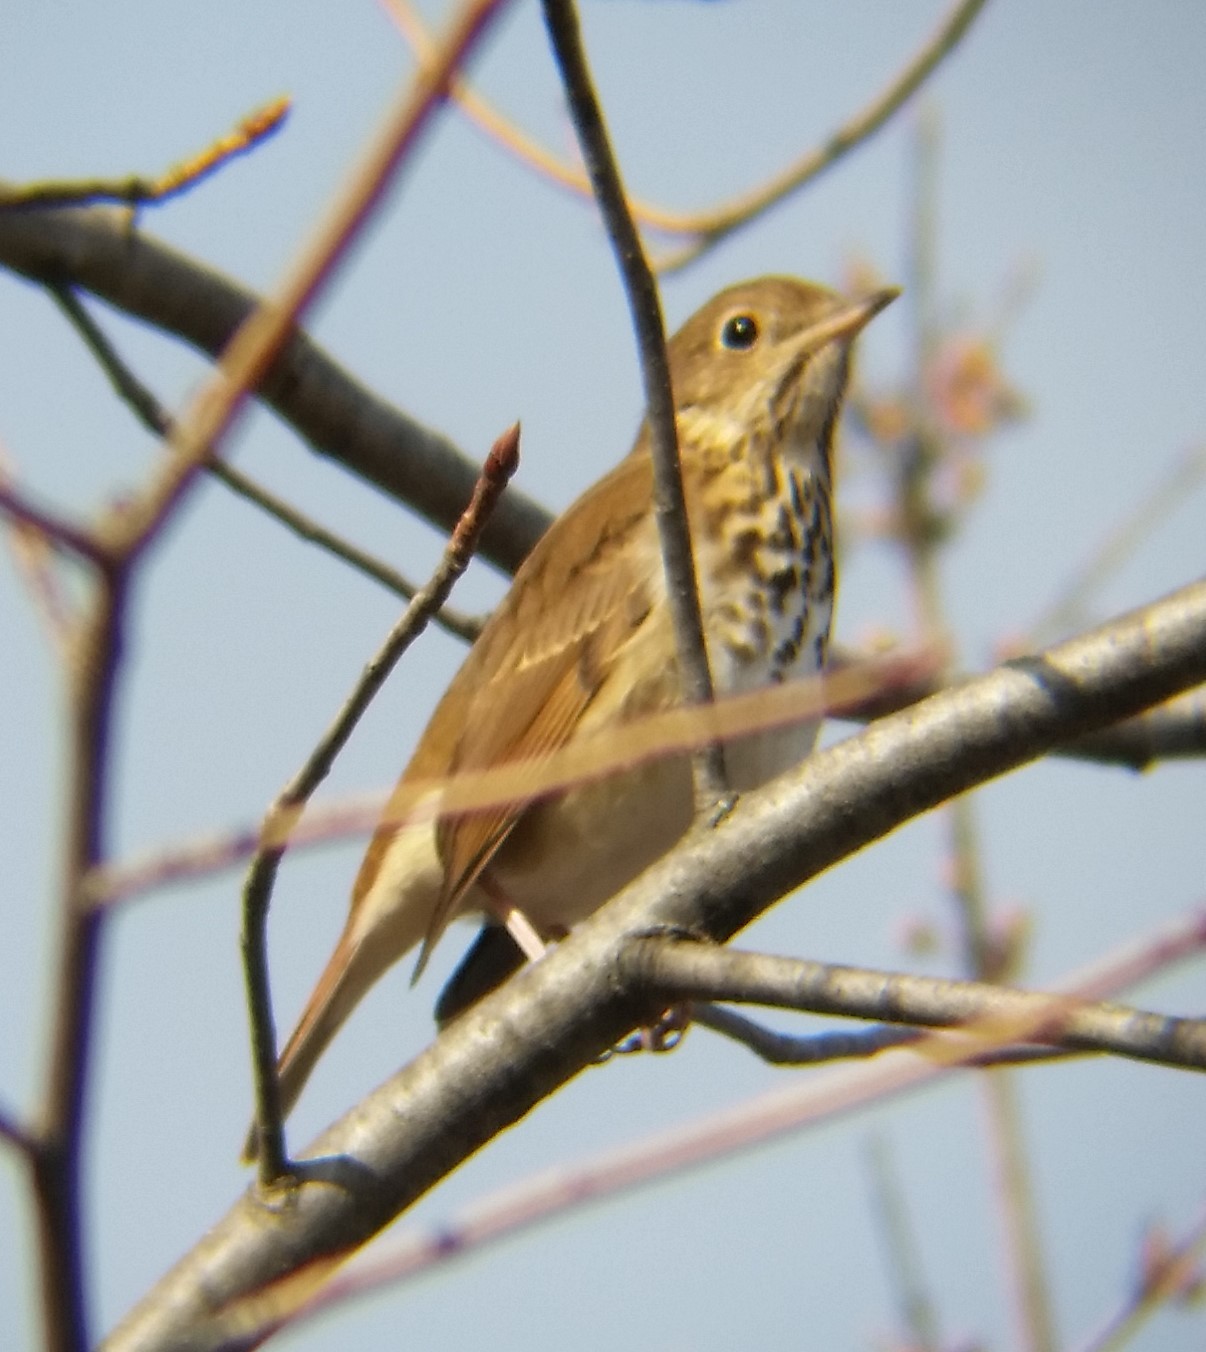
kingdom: Animalia
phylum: Chordata
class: Aves
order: Passeriformes
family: Turdidae
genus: Catharus
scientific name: Catharus guttatus
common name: Hermit thrush
